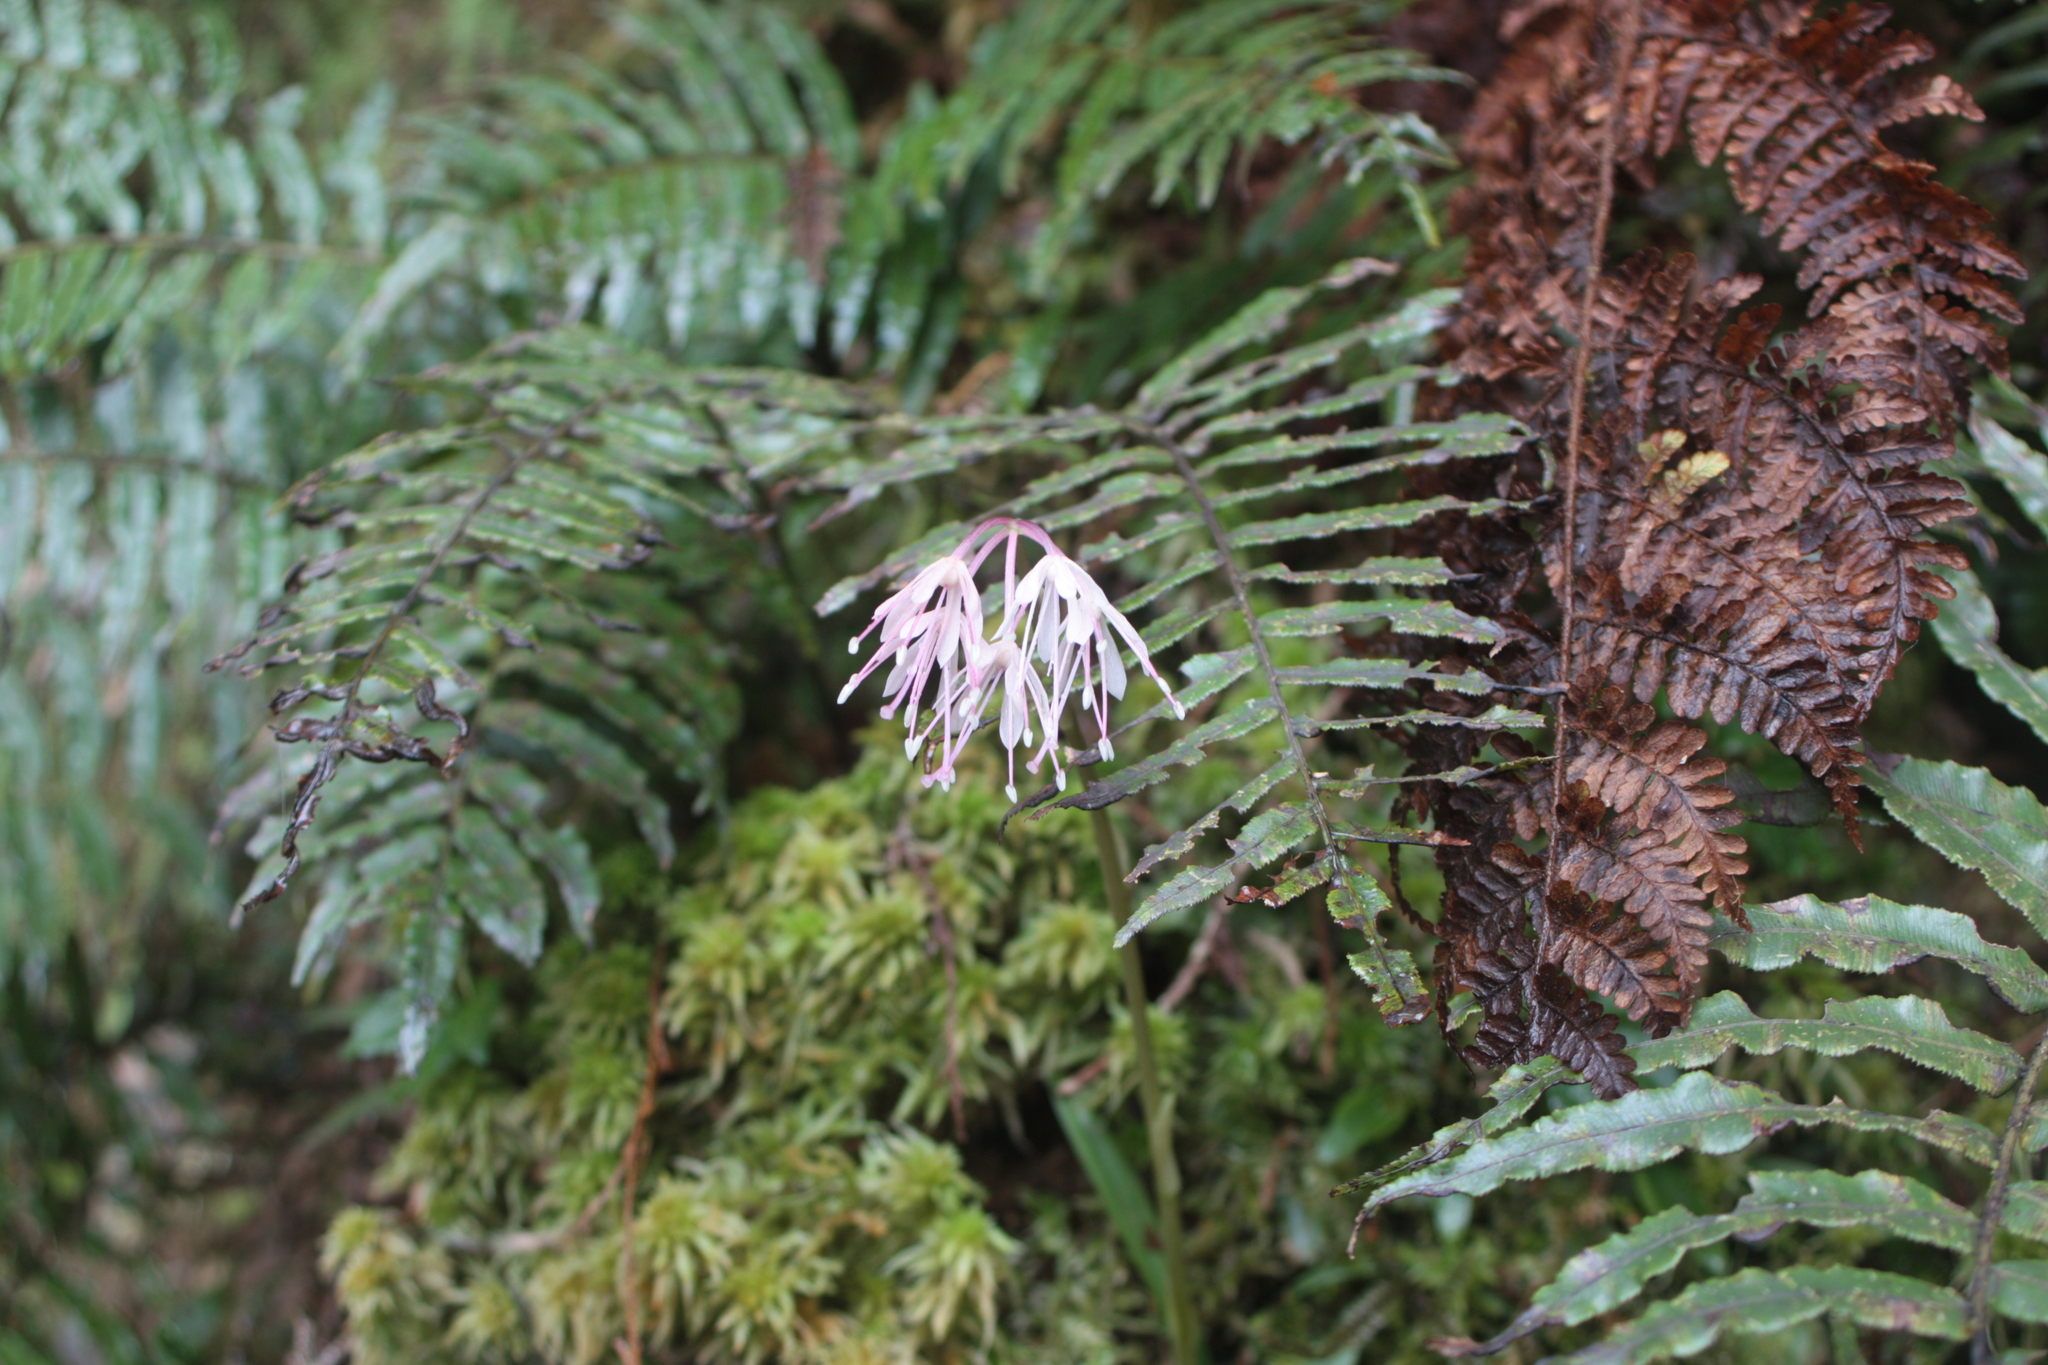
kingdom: Plantae
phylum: Tracheophyta
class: Liliopsida
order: Liliales
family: Melanthiaceae
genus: Helonias
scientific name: Helonias umbellata
